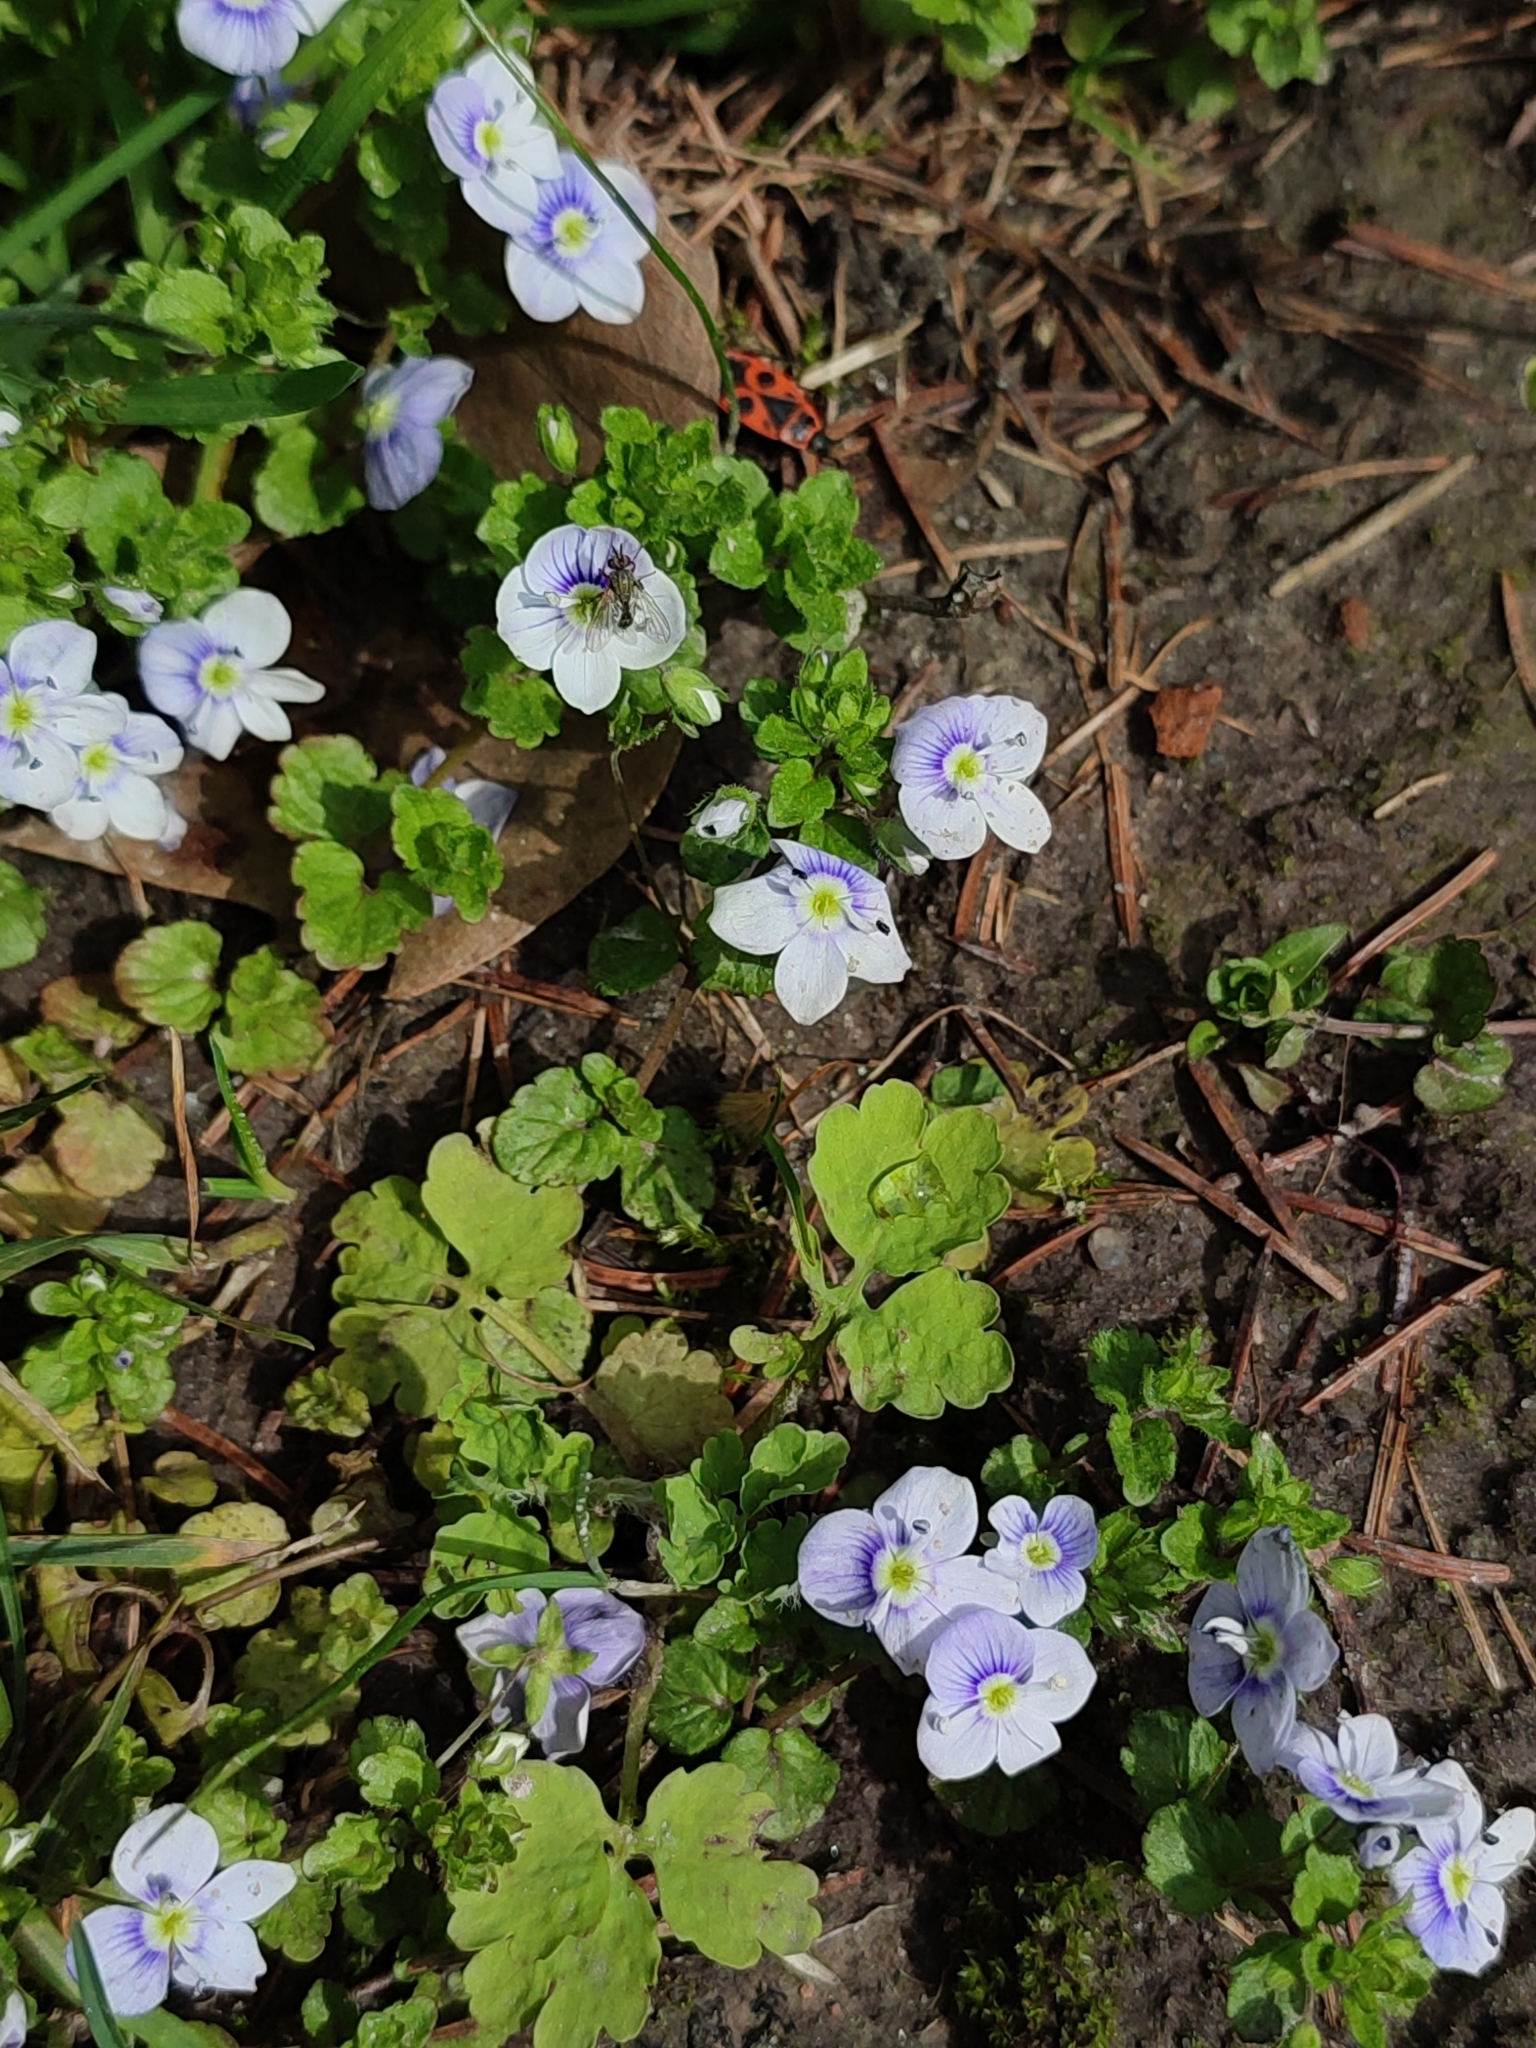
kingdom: Plantae
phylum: Tracheophyta
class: Magnoliopsida
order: Lamiales
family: Plantaginaceae
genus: Veronica
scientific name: Veronica filiformis
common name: Slender speedwell
